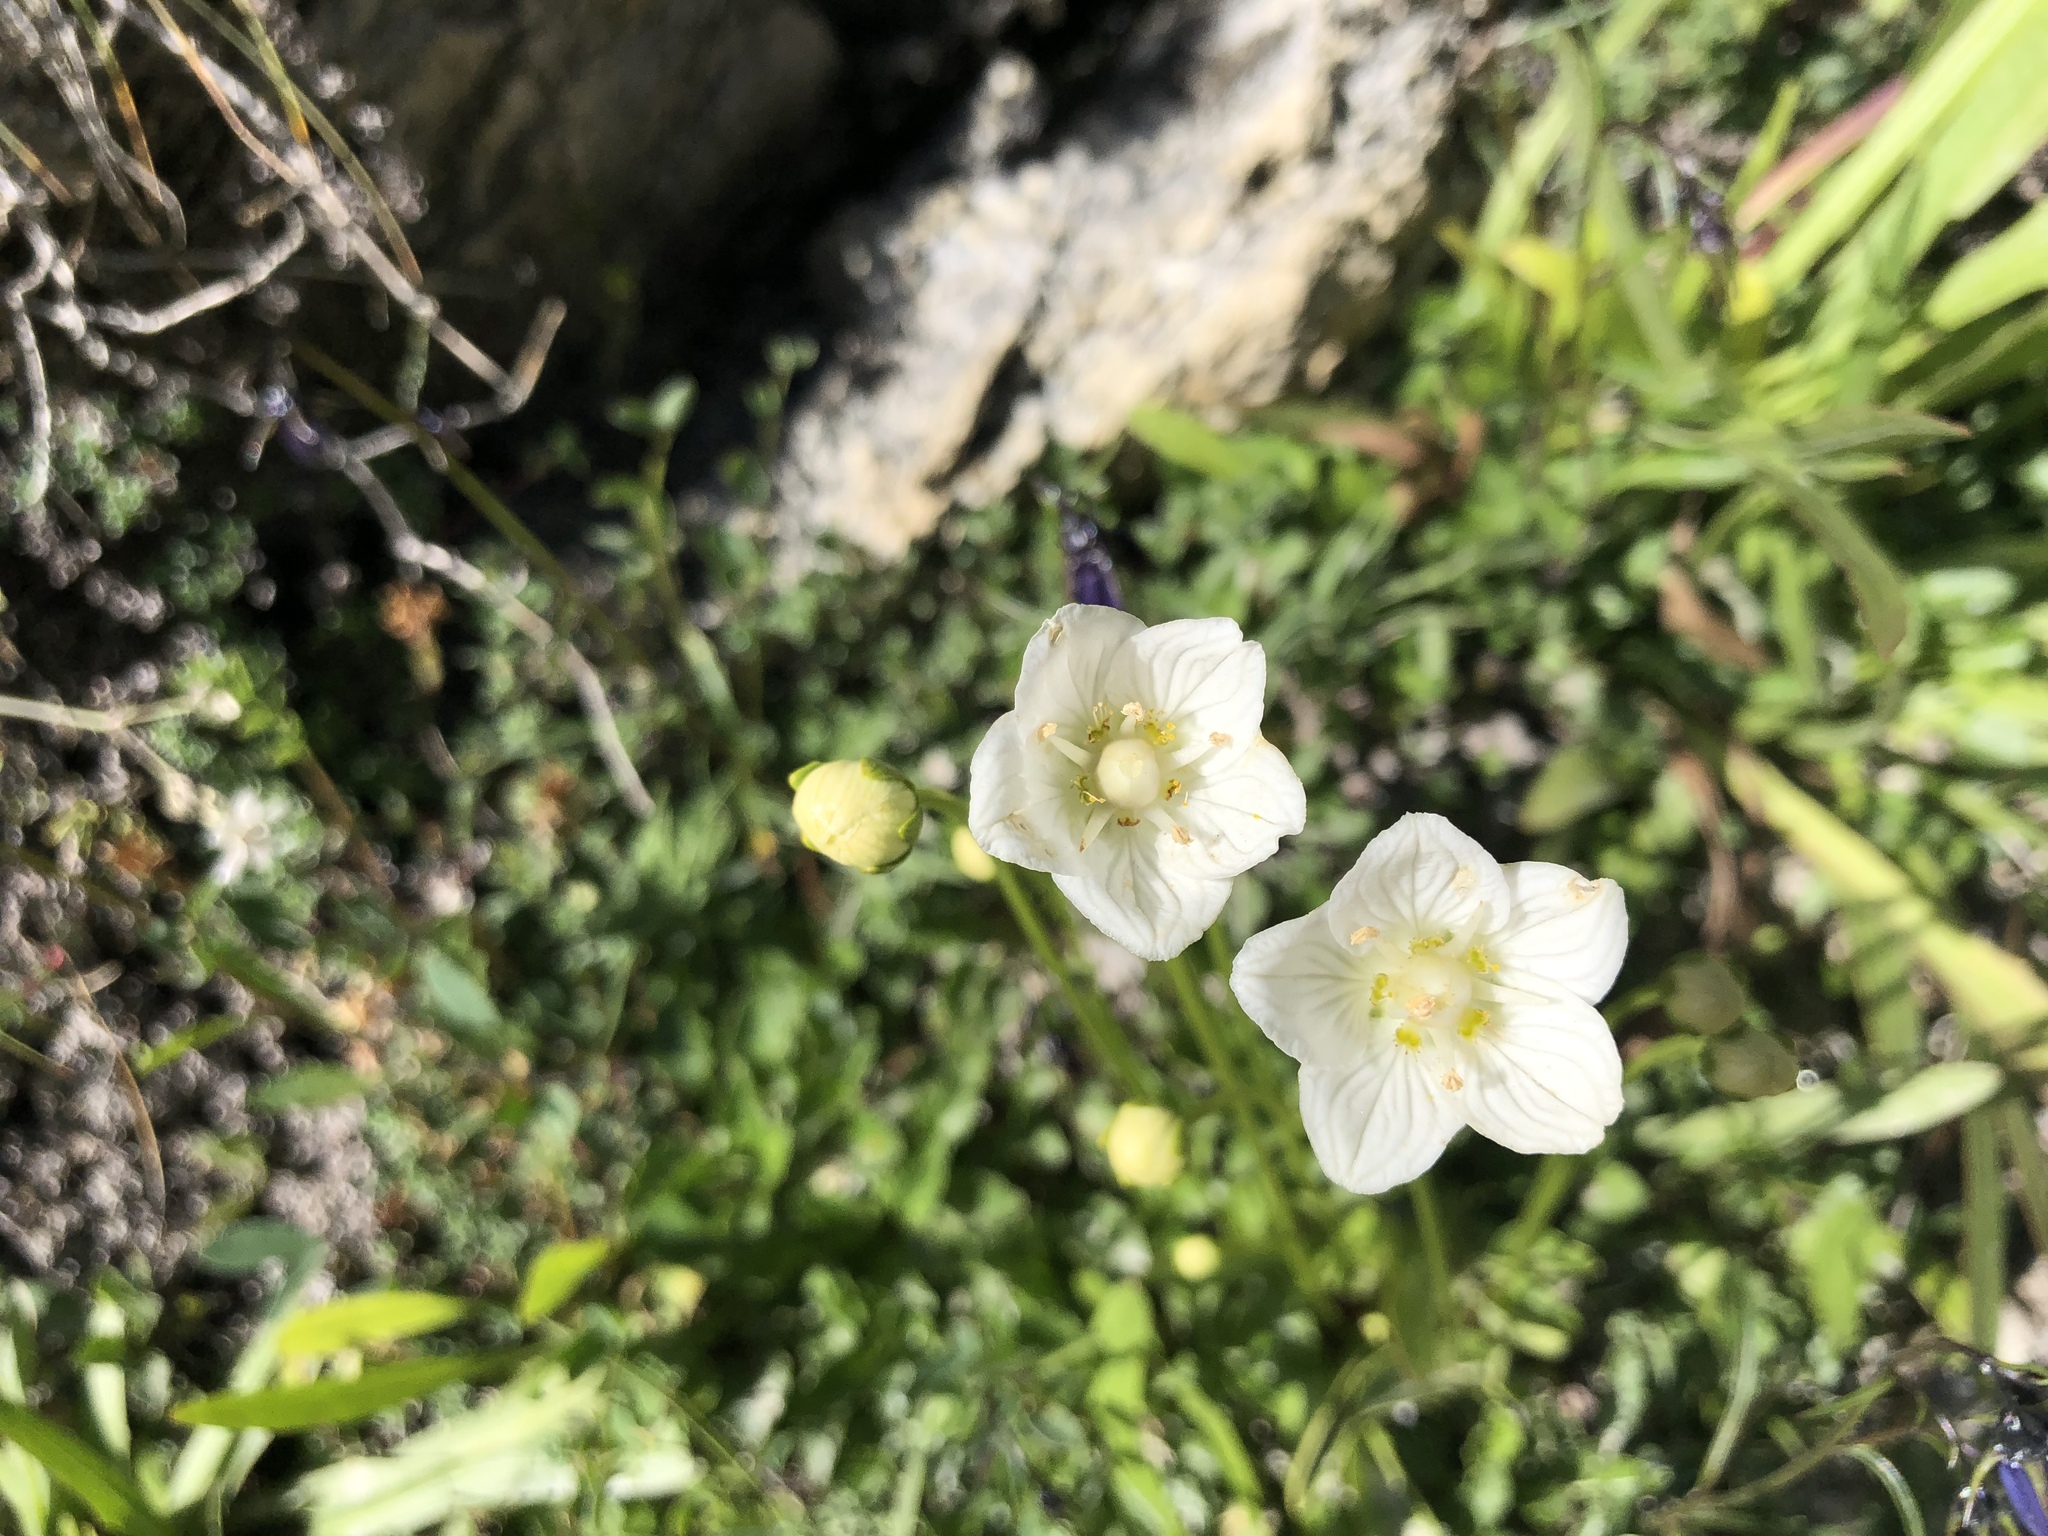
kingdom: Plantae
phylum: Tracheophyta
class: Magnoliopsida
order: Celastrales
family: Parnassiaceae
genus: Parnassia
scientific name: Parnassia palustris
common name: Grass-of-parnassus
